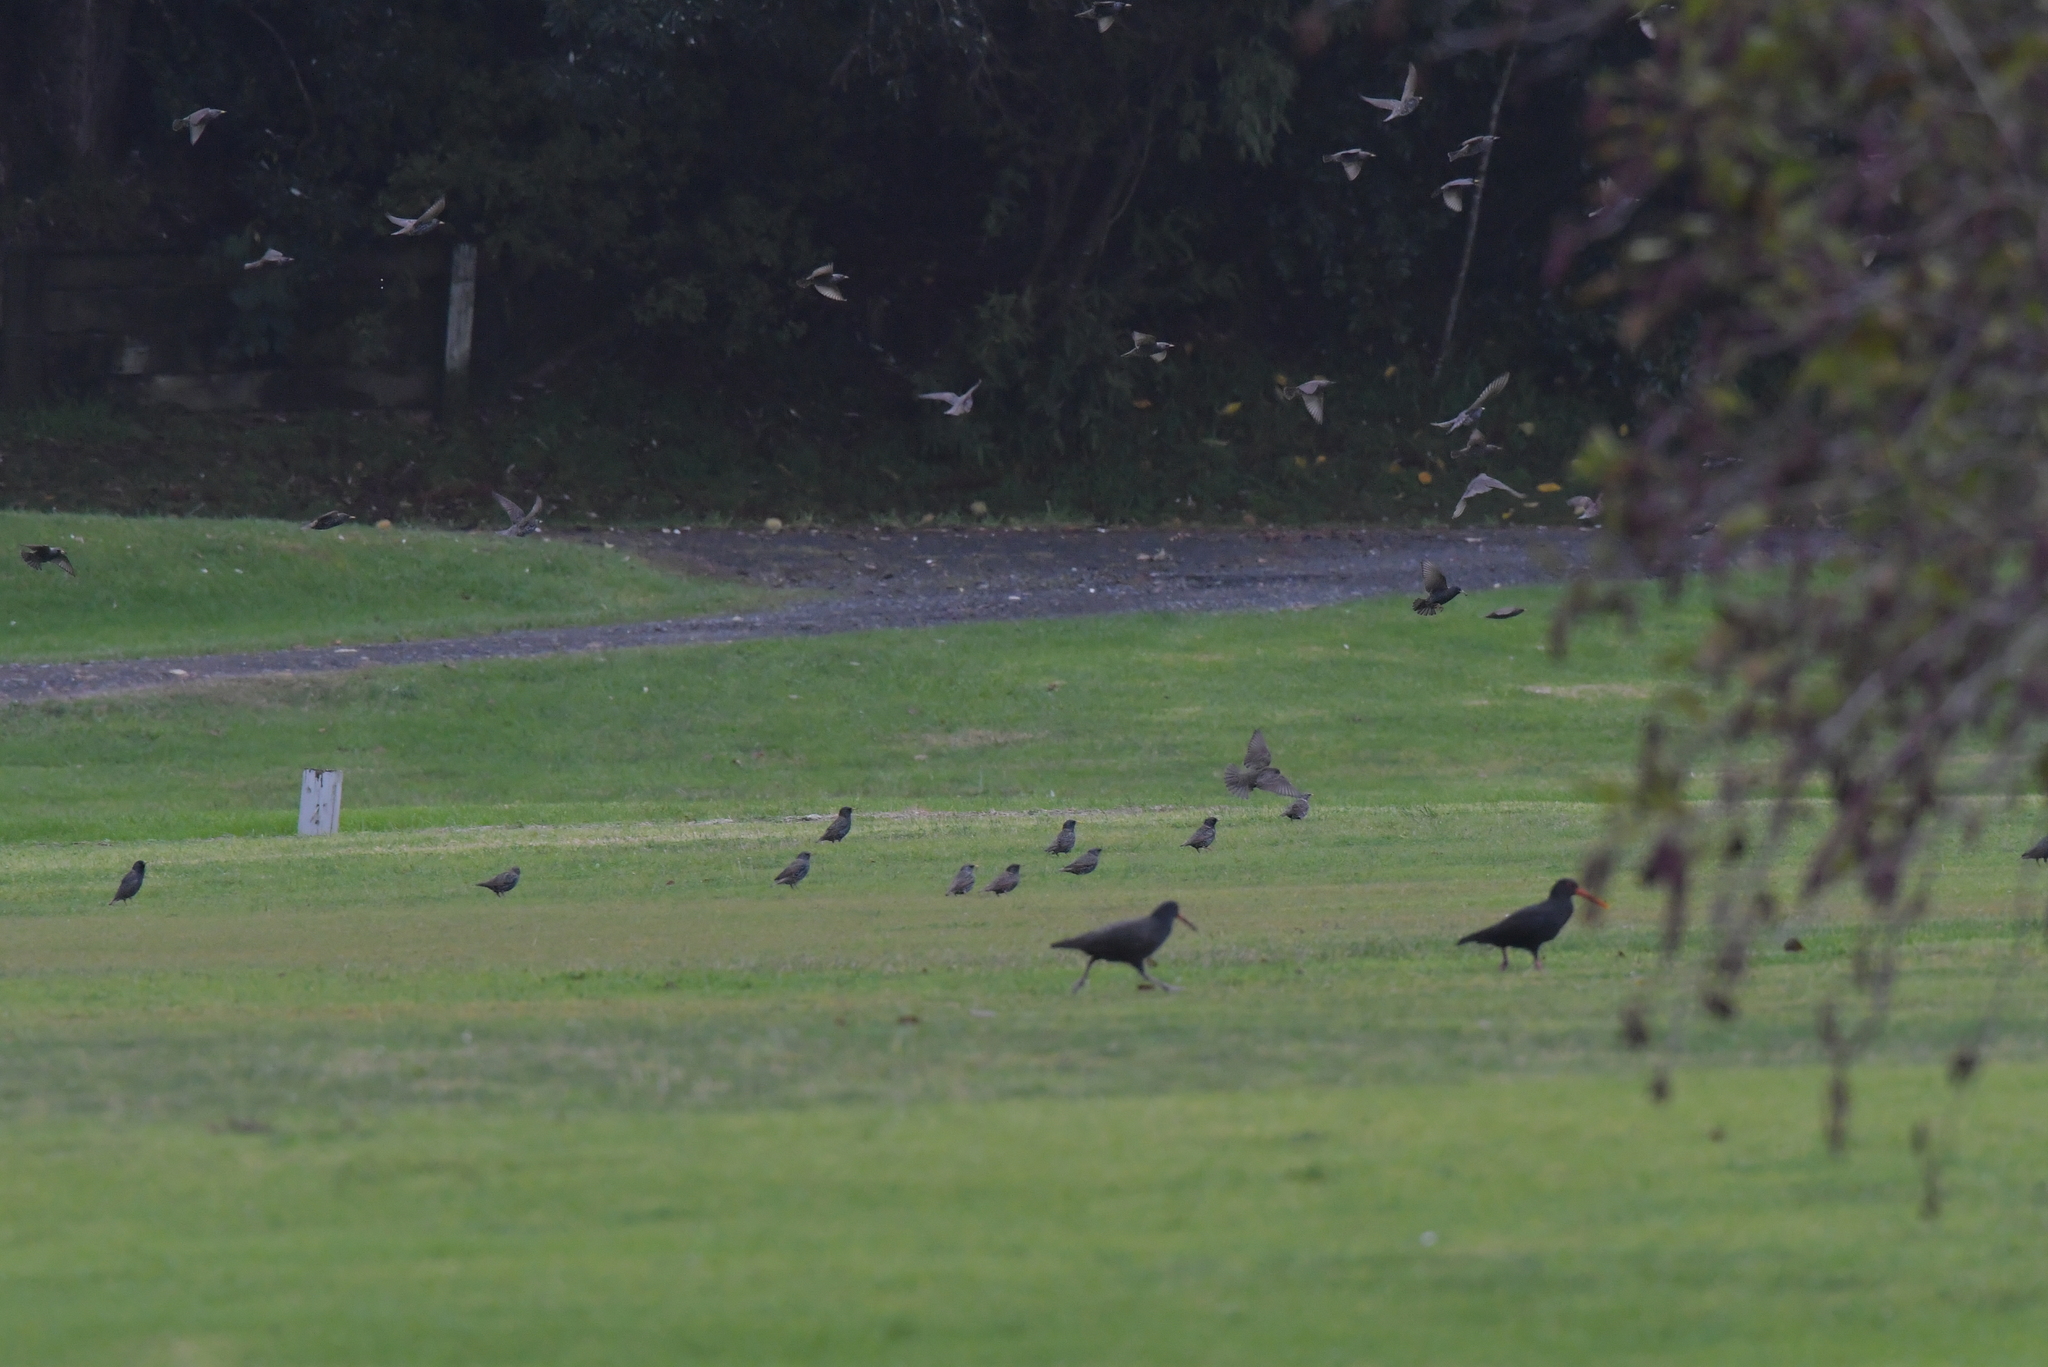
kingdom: Animalia
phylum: Chordata
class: Aves
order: Passeriformes
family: Sturnidae
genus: Sturnus
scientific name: Sturnus vulgaris
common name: Common starling
